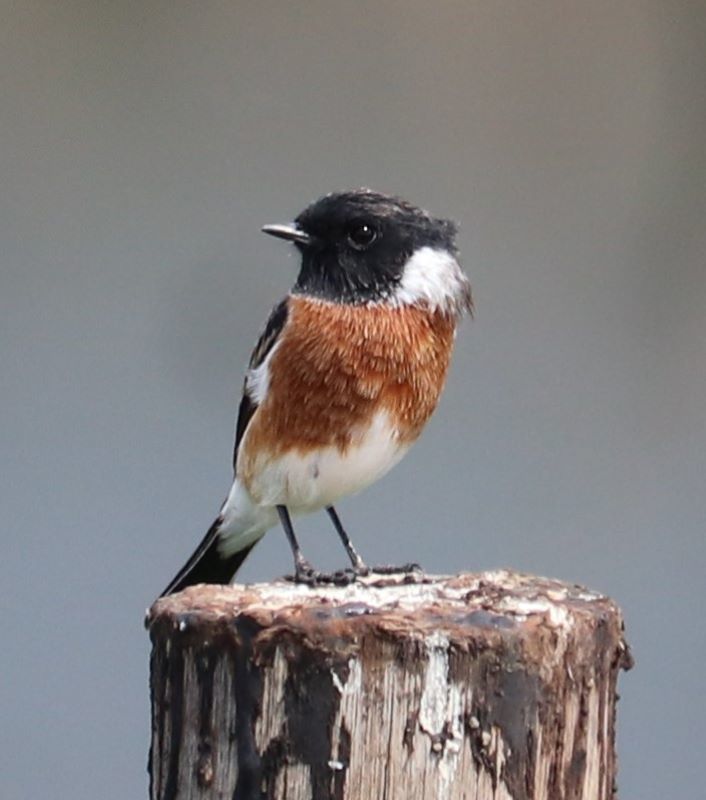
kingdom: Animalia
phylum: Chordata
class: Aves
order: Passeriformes
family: Muscicapidae
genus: Saxicola
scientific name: Saxicola torquatus
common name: African stonechat
